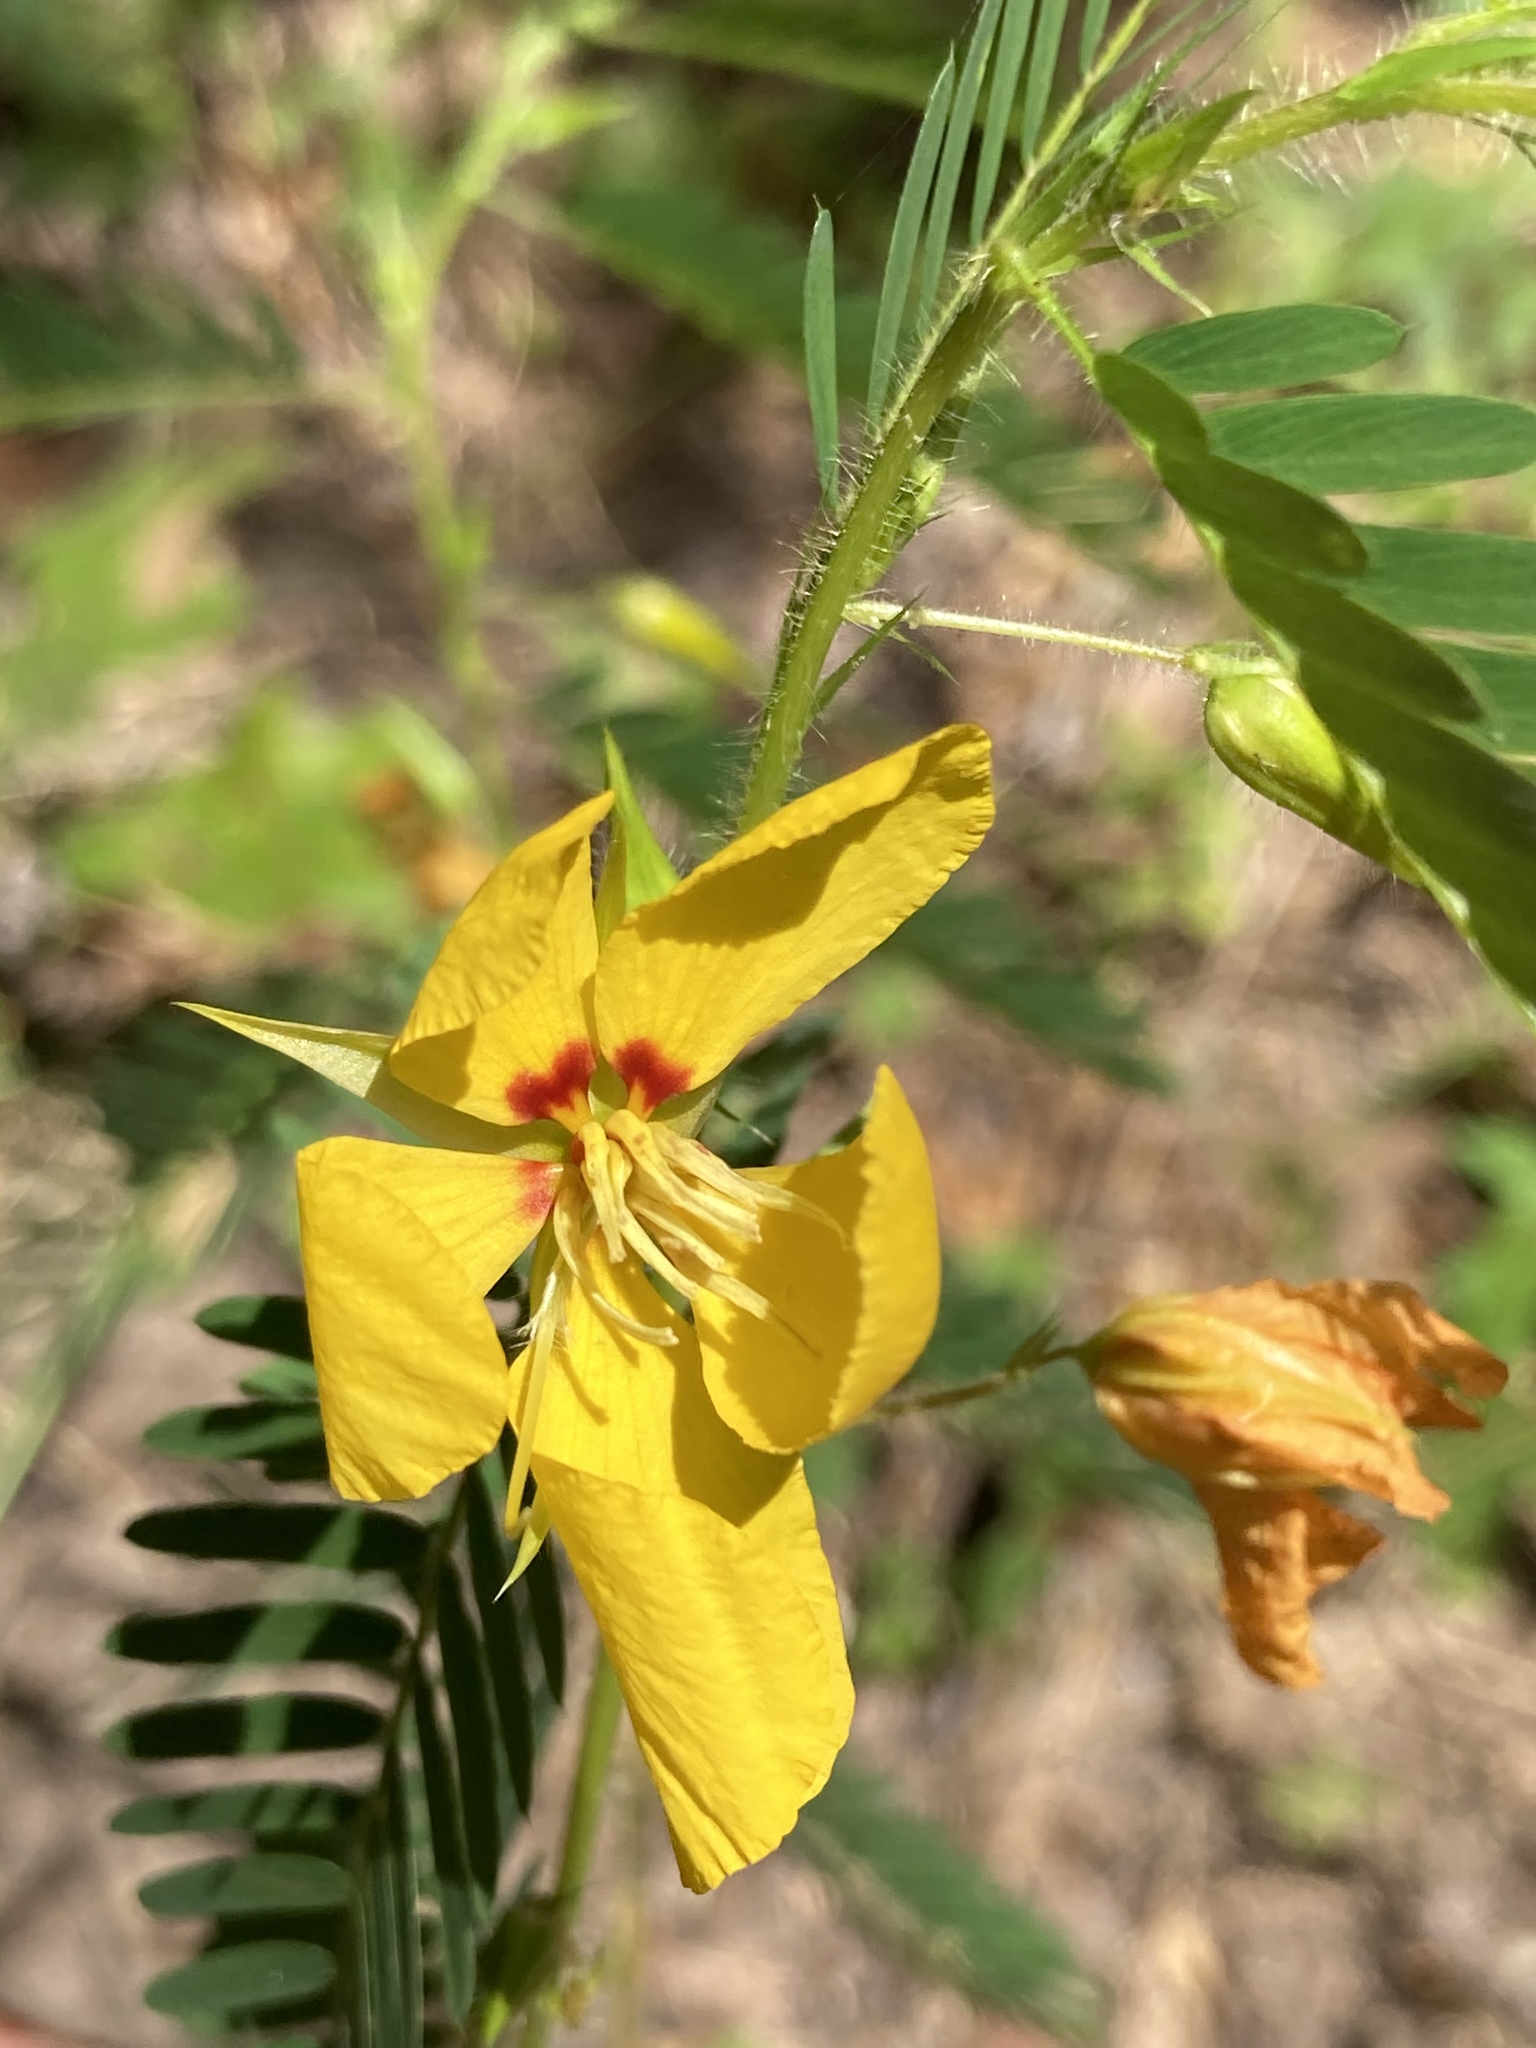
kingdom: Plantae
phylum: Tracheophyta
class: Magnoliopsida
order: Fabales
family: Fabaceae
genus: Chamaecrista
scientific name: Chamaecrista fasciculata
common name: Golden cassia
